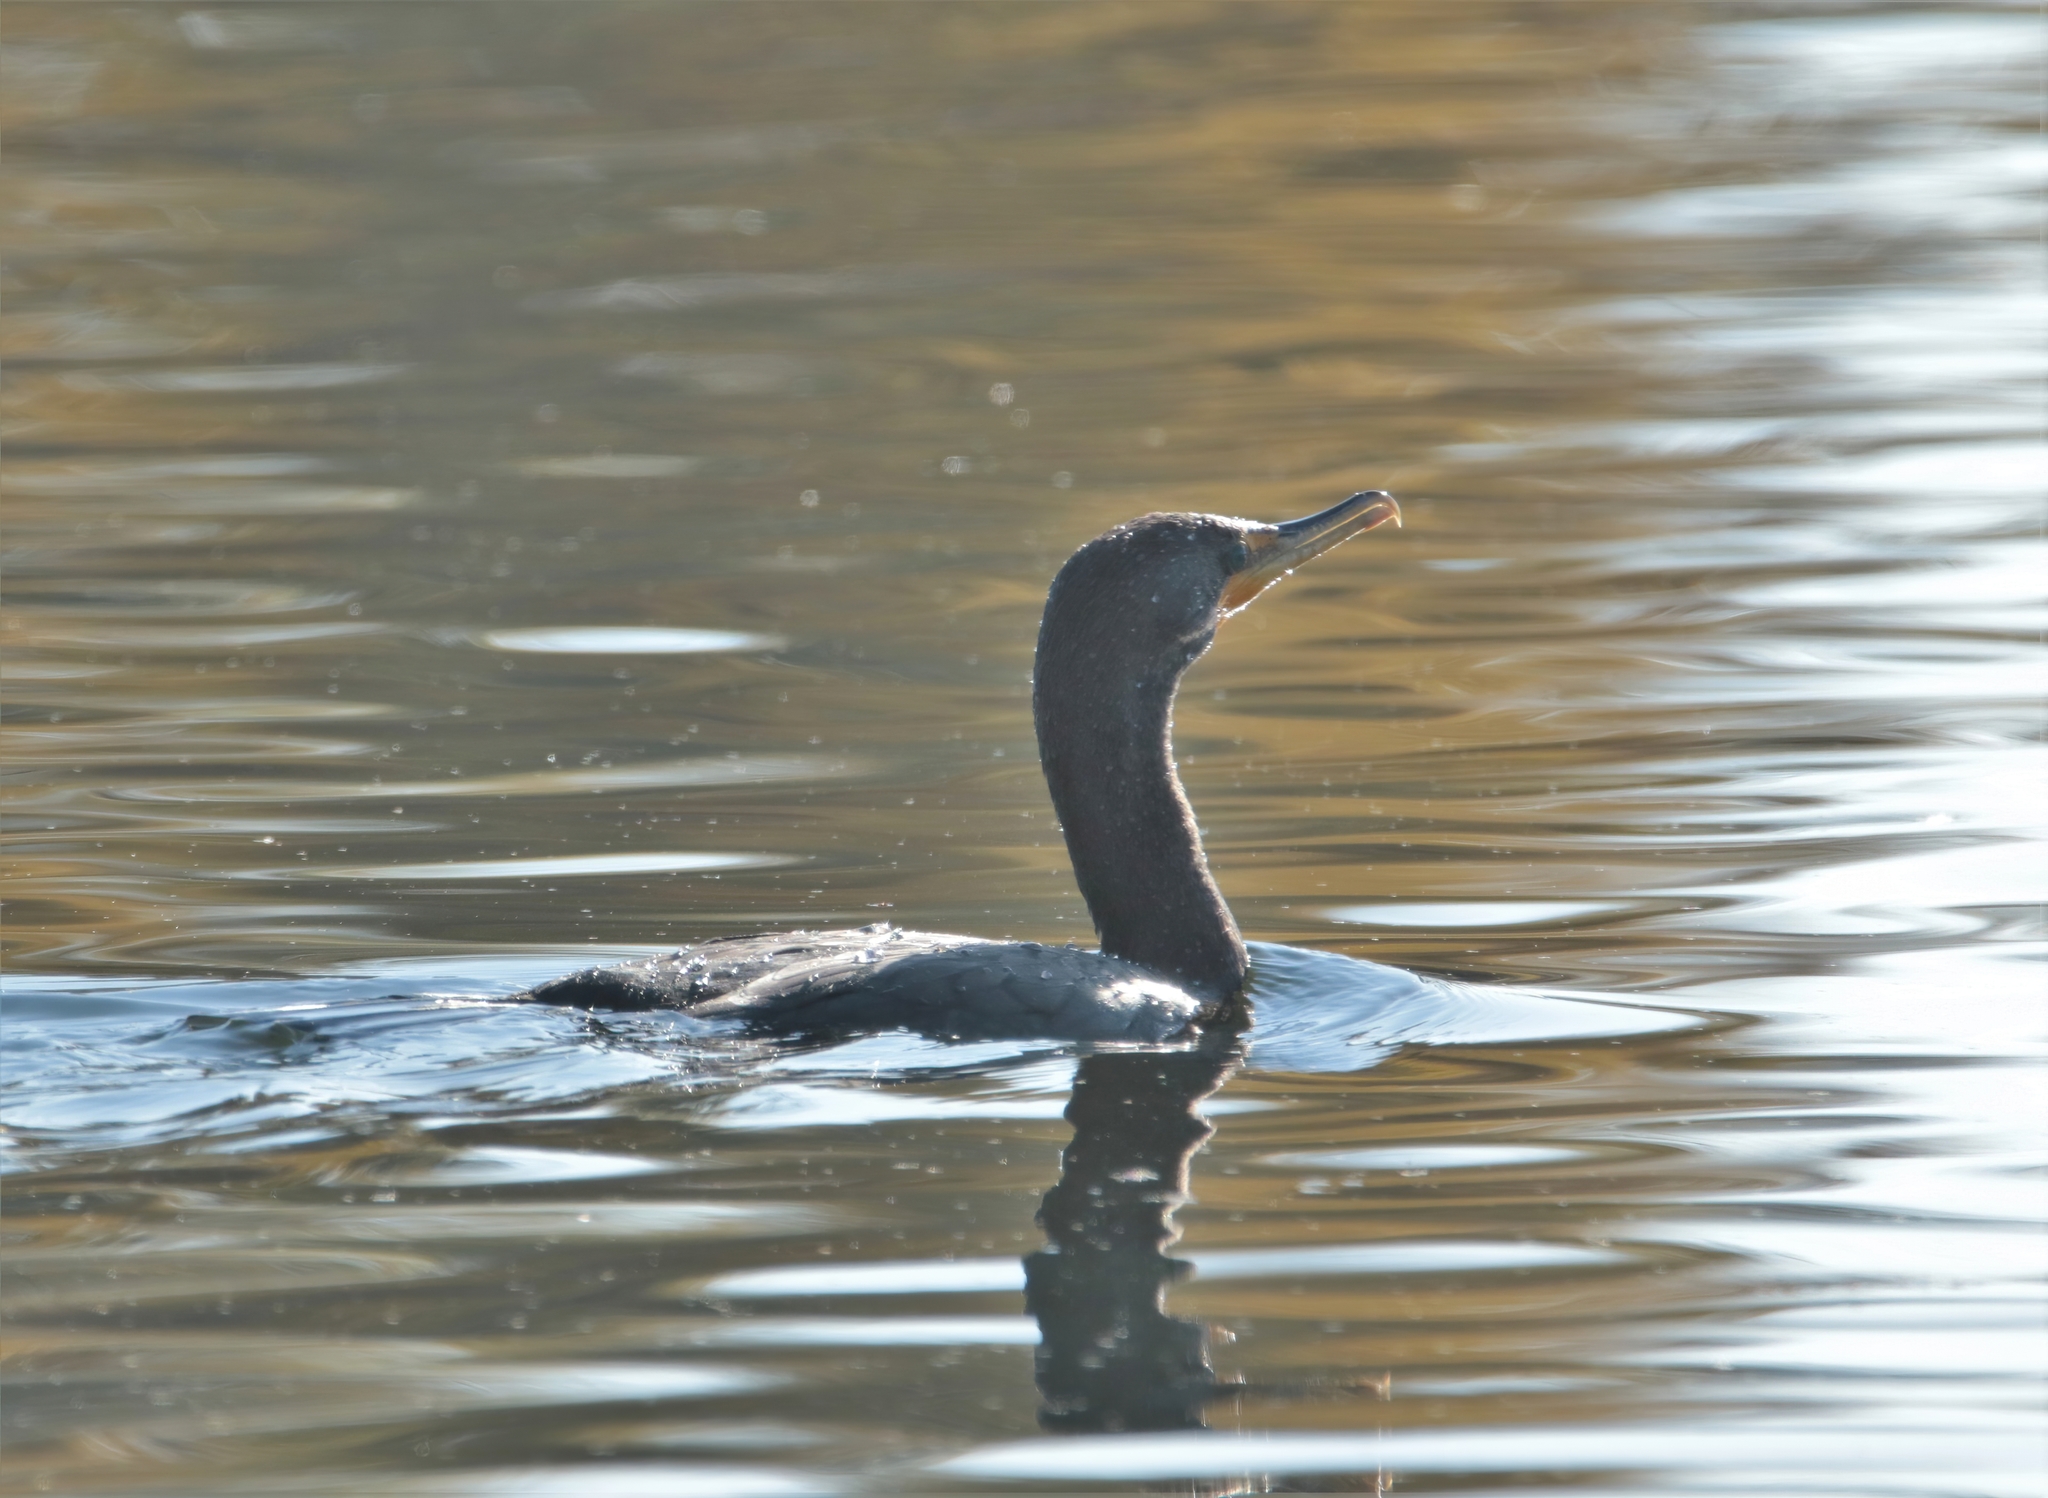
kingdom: Animalia
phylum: Chordata
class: Aves
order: Suliformes
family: Phalacrocoracidae
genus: Phalacrocorax
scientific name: Phalacrocorax auritus
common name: Double-crested cormorant
